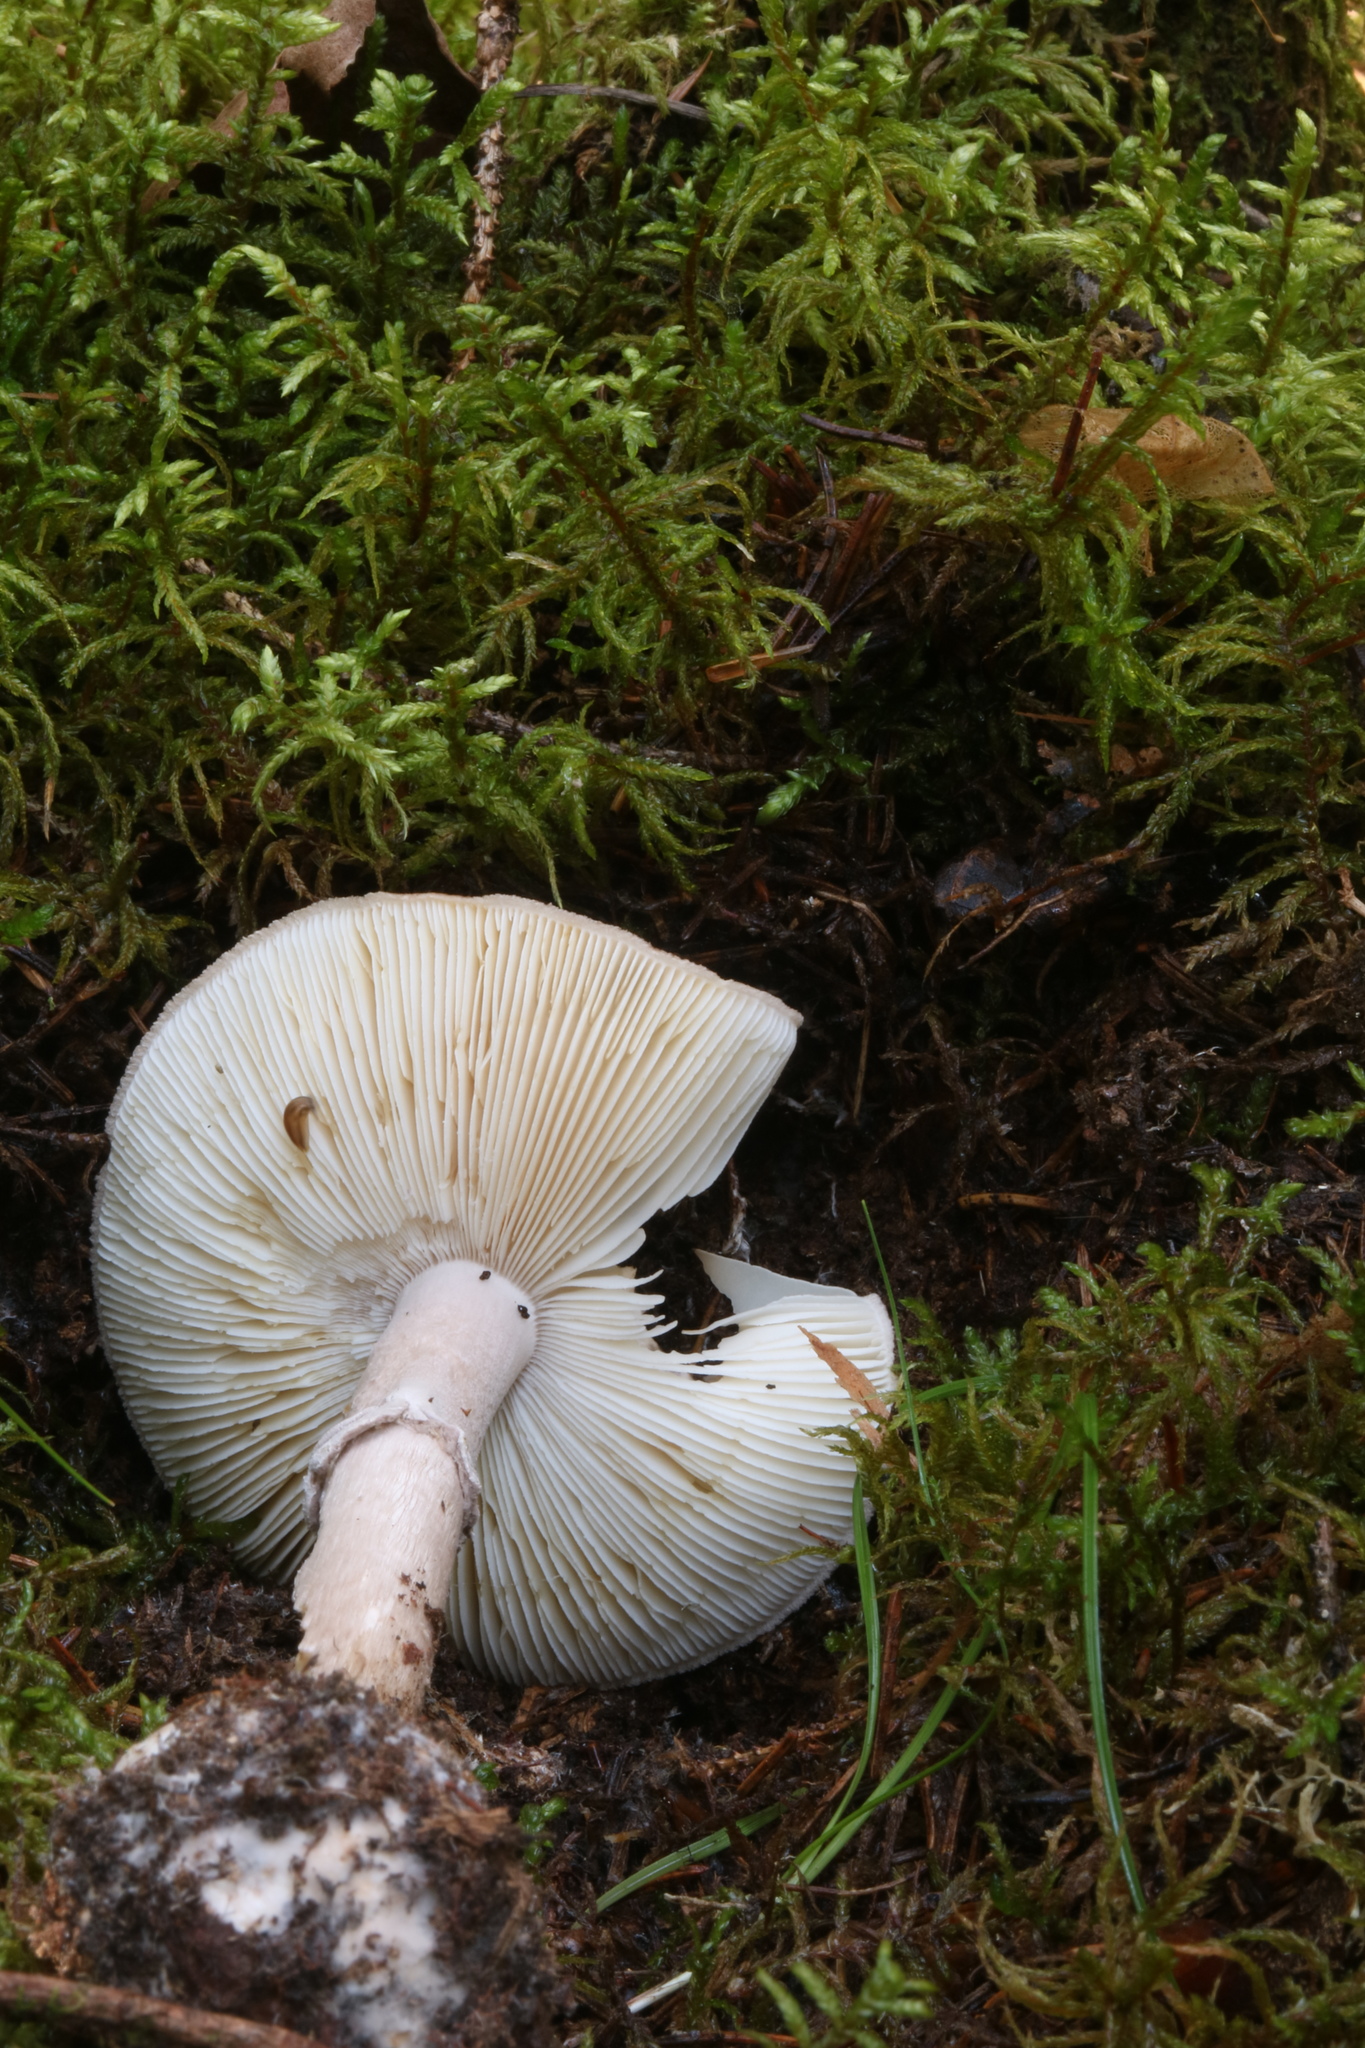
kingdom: Fungi
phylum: Basidiomycota
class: Agaricomycetes
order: Agaricales
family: Amanitaceae
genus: Amanita
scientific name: Amanita porphyria
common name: Grey veiled amanita
